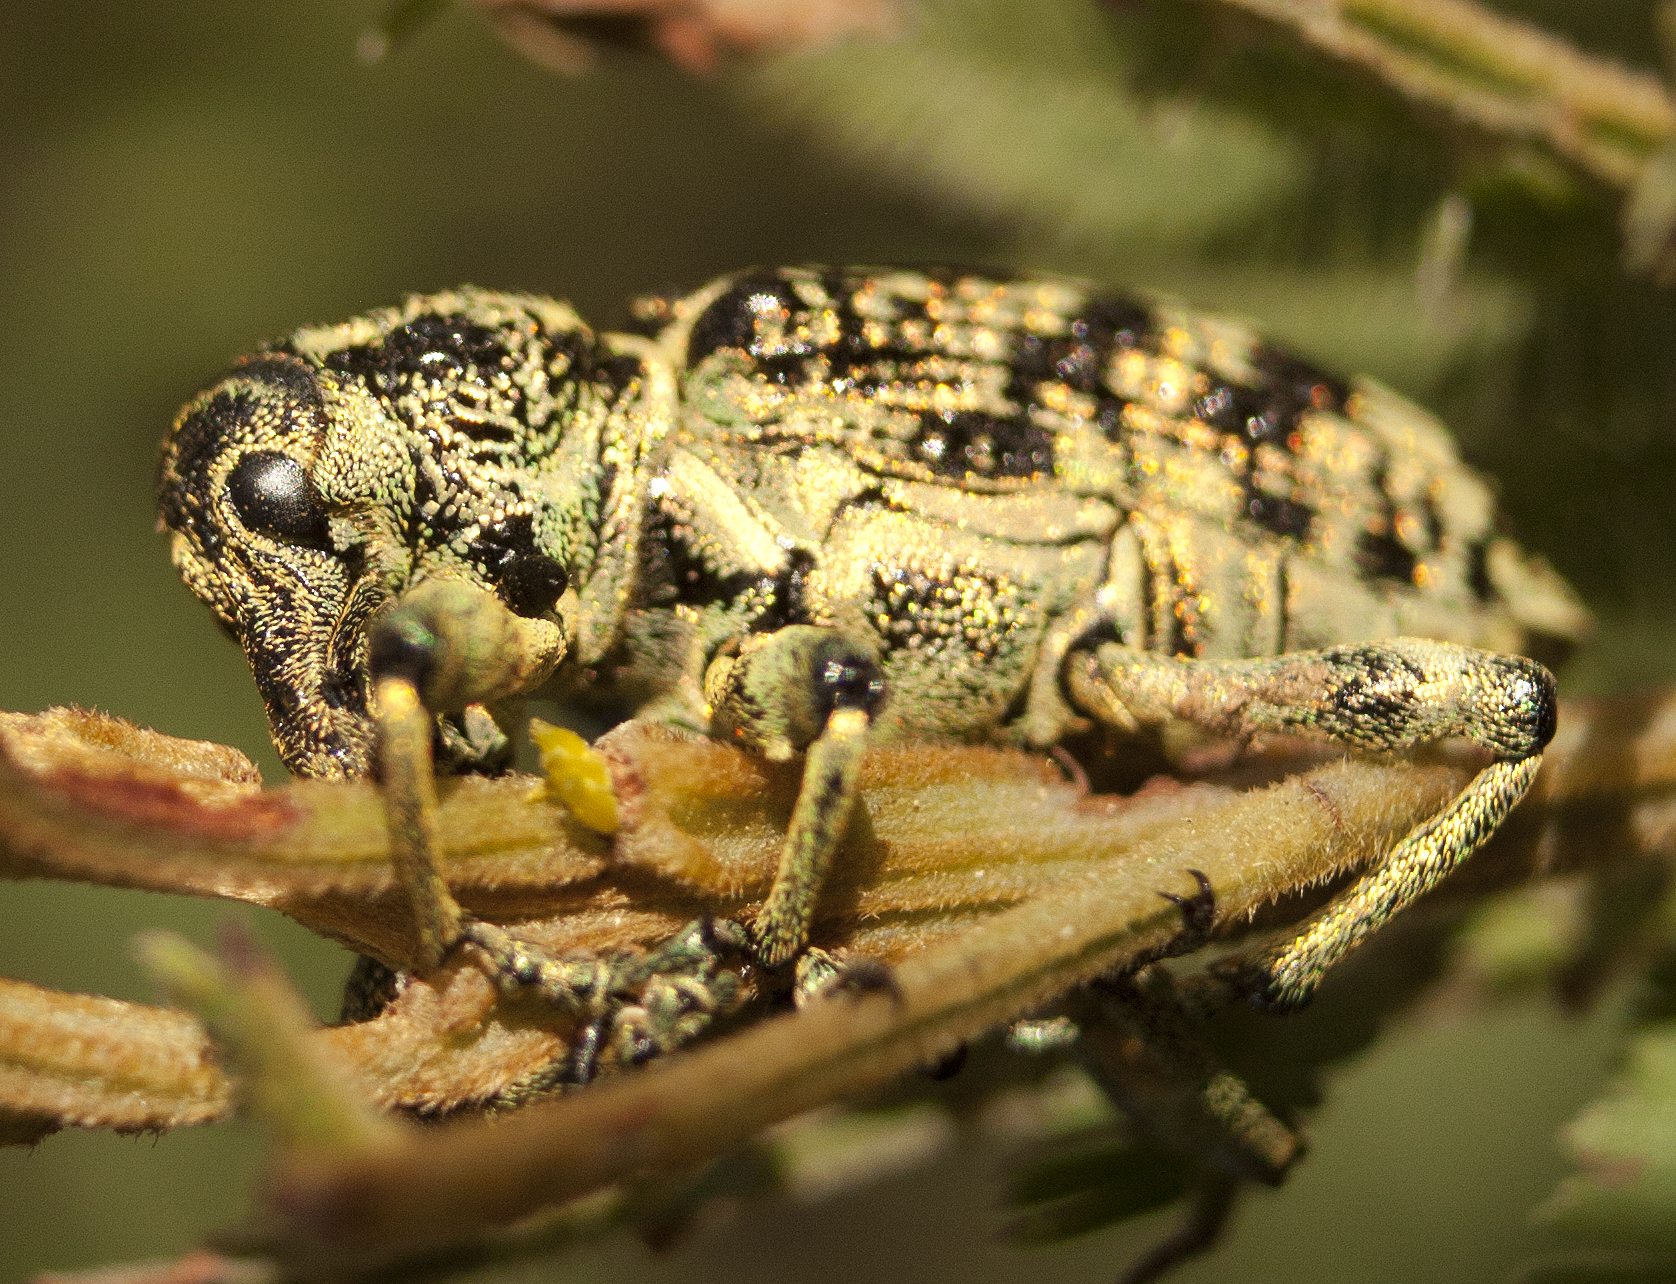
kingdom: Animalia
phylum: Arthropoda
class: Insecta
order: Coleoptera
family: Curculionidae
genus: Chrysolopus
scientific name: Chrysolopus spectabilis
